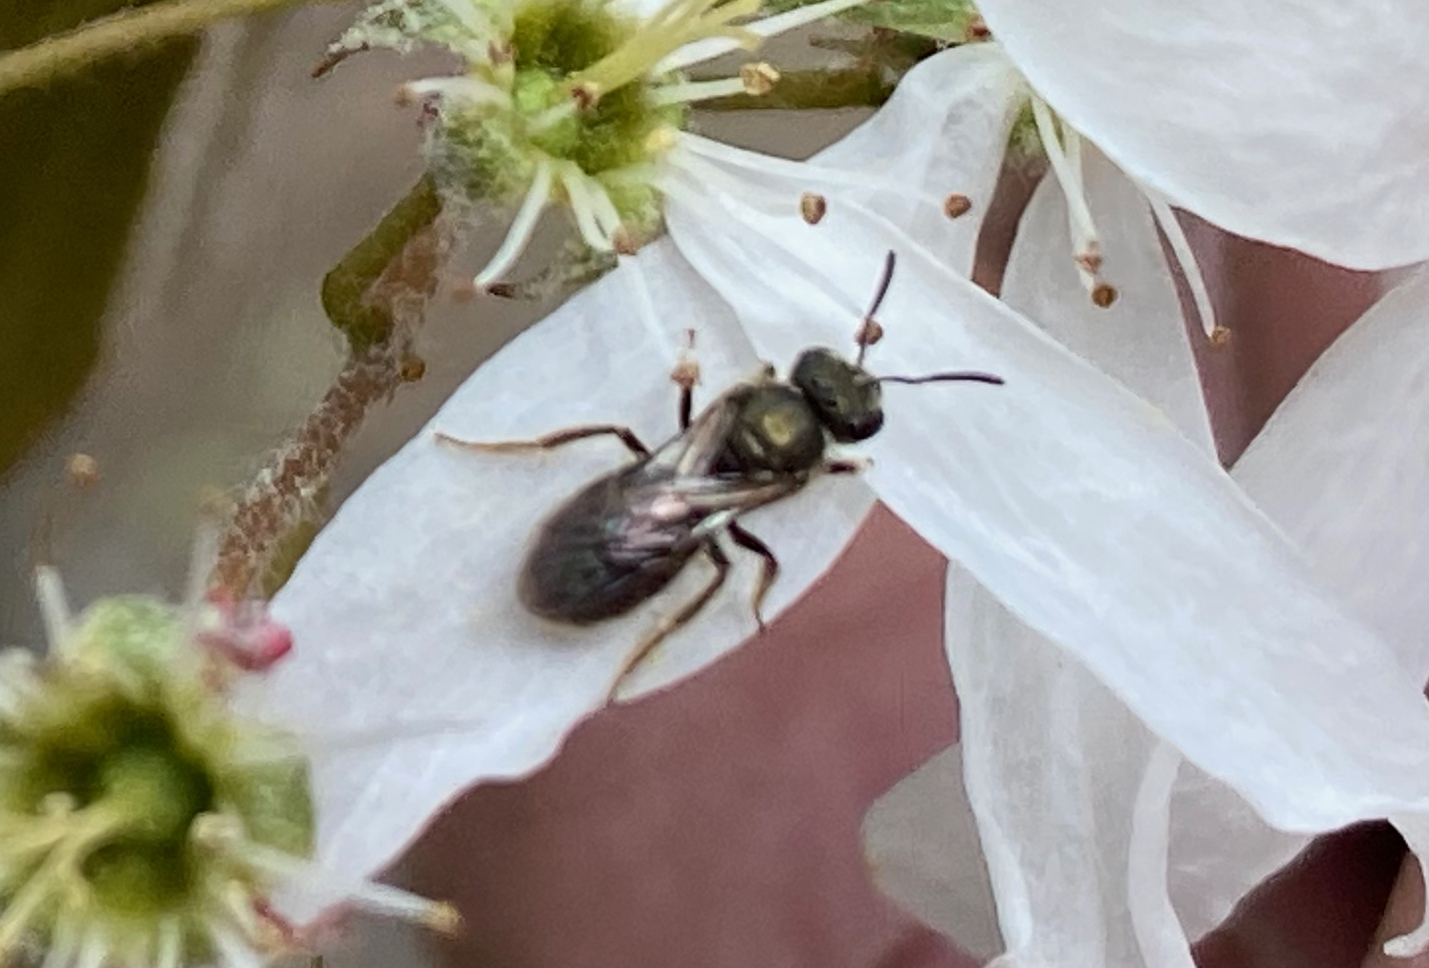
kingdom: Animalia
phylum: Arthropoda
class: Insecta
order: Hymenoptera
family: Halictidae
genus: Dialictus
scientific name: Dialictus
